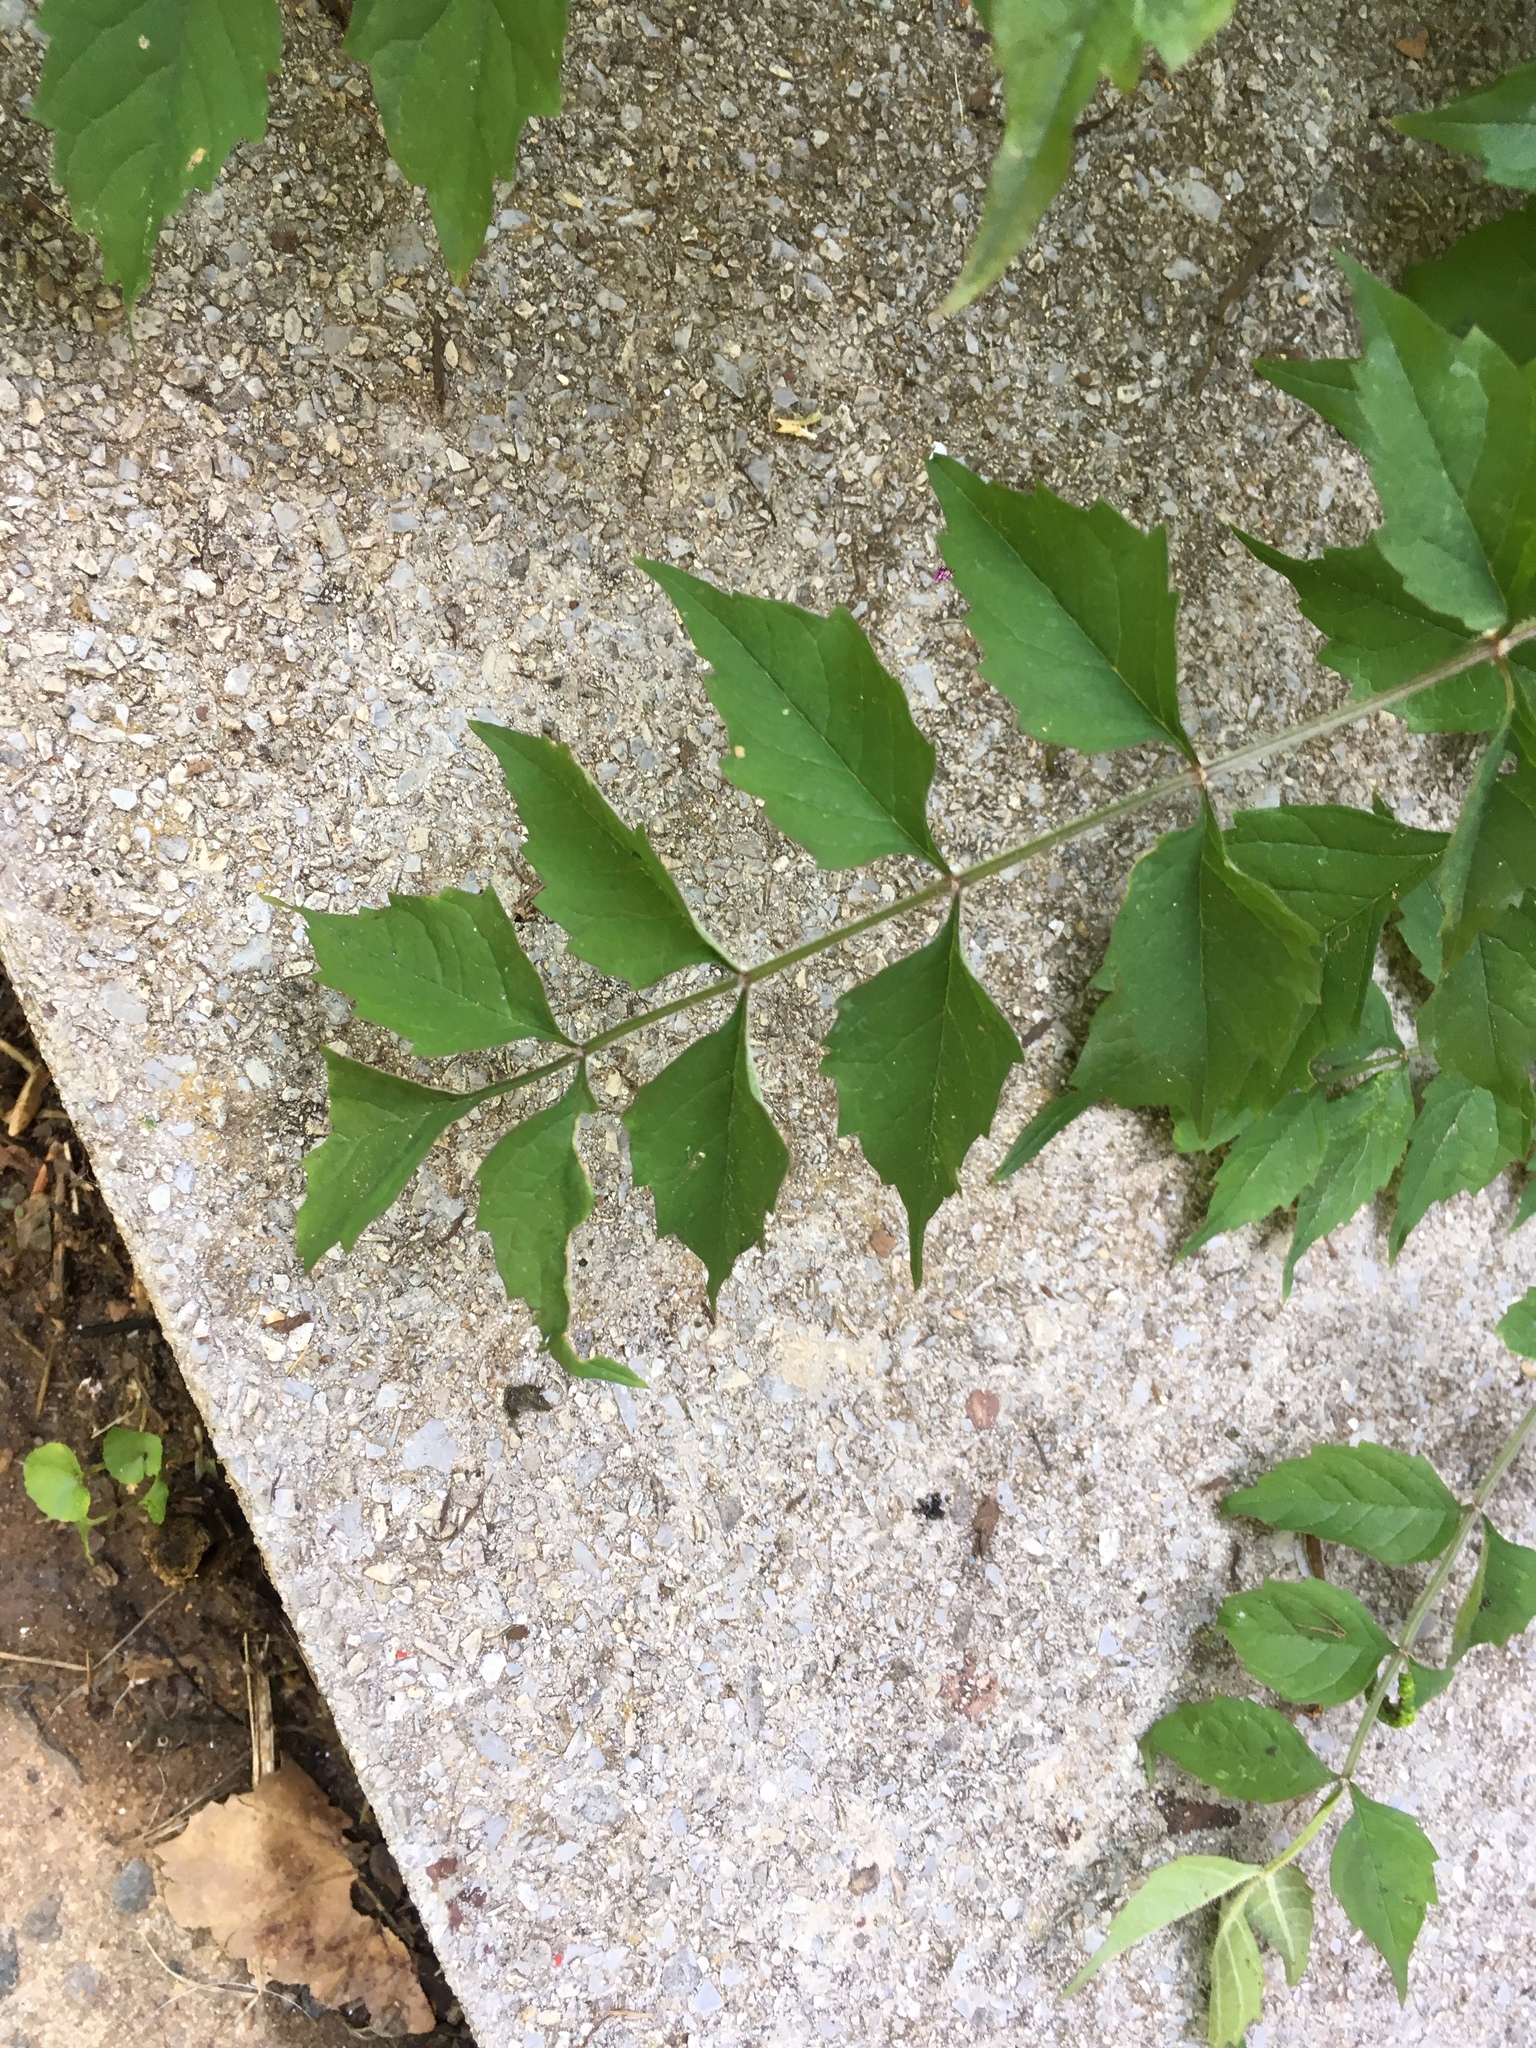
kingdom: Plantae
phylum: Tracheophyta
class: Magnoliopsida
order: Lamiales
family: Bignoniaceae
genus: Campsis
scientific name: Campsis radicans
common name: Trumpet-creeper
